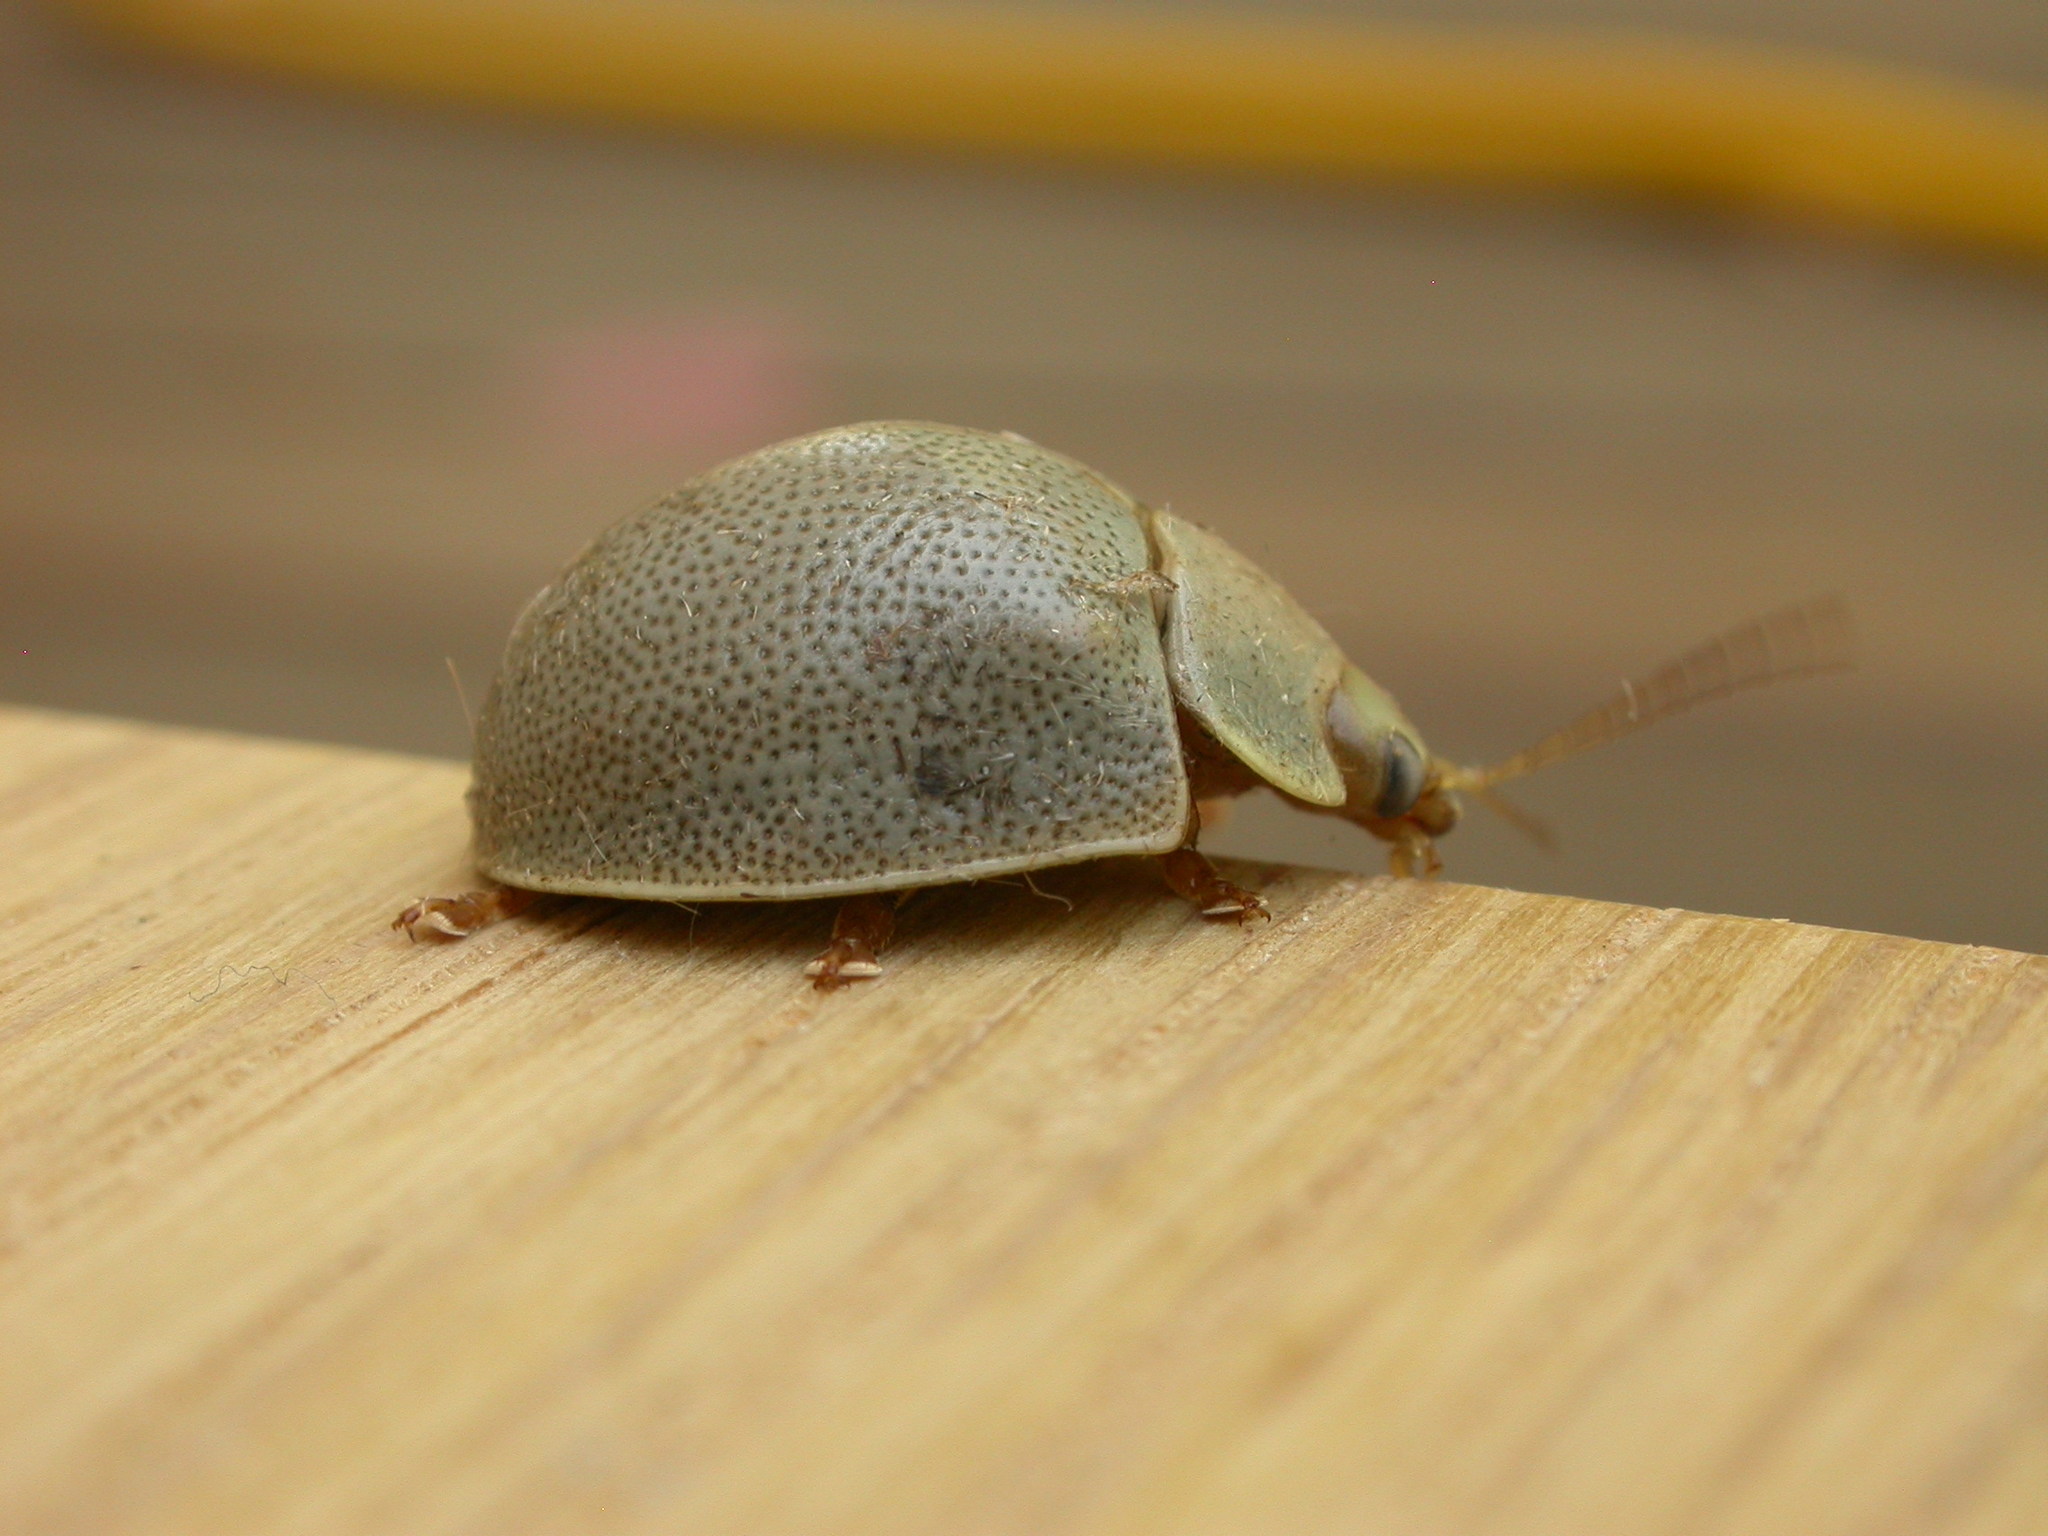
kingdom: Animalia
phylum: Arthropoda
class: Insecta
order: Coleoptera
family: Chrysomelidae
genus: Paropsisterna
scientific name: Paropsisterna
